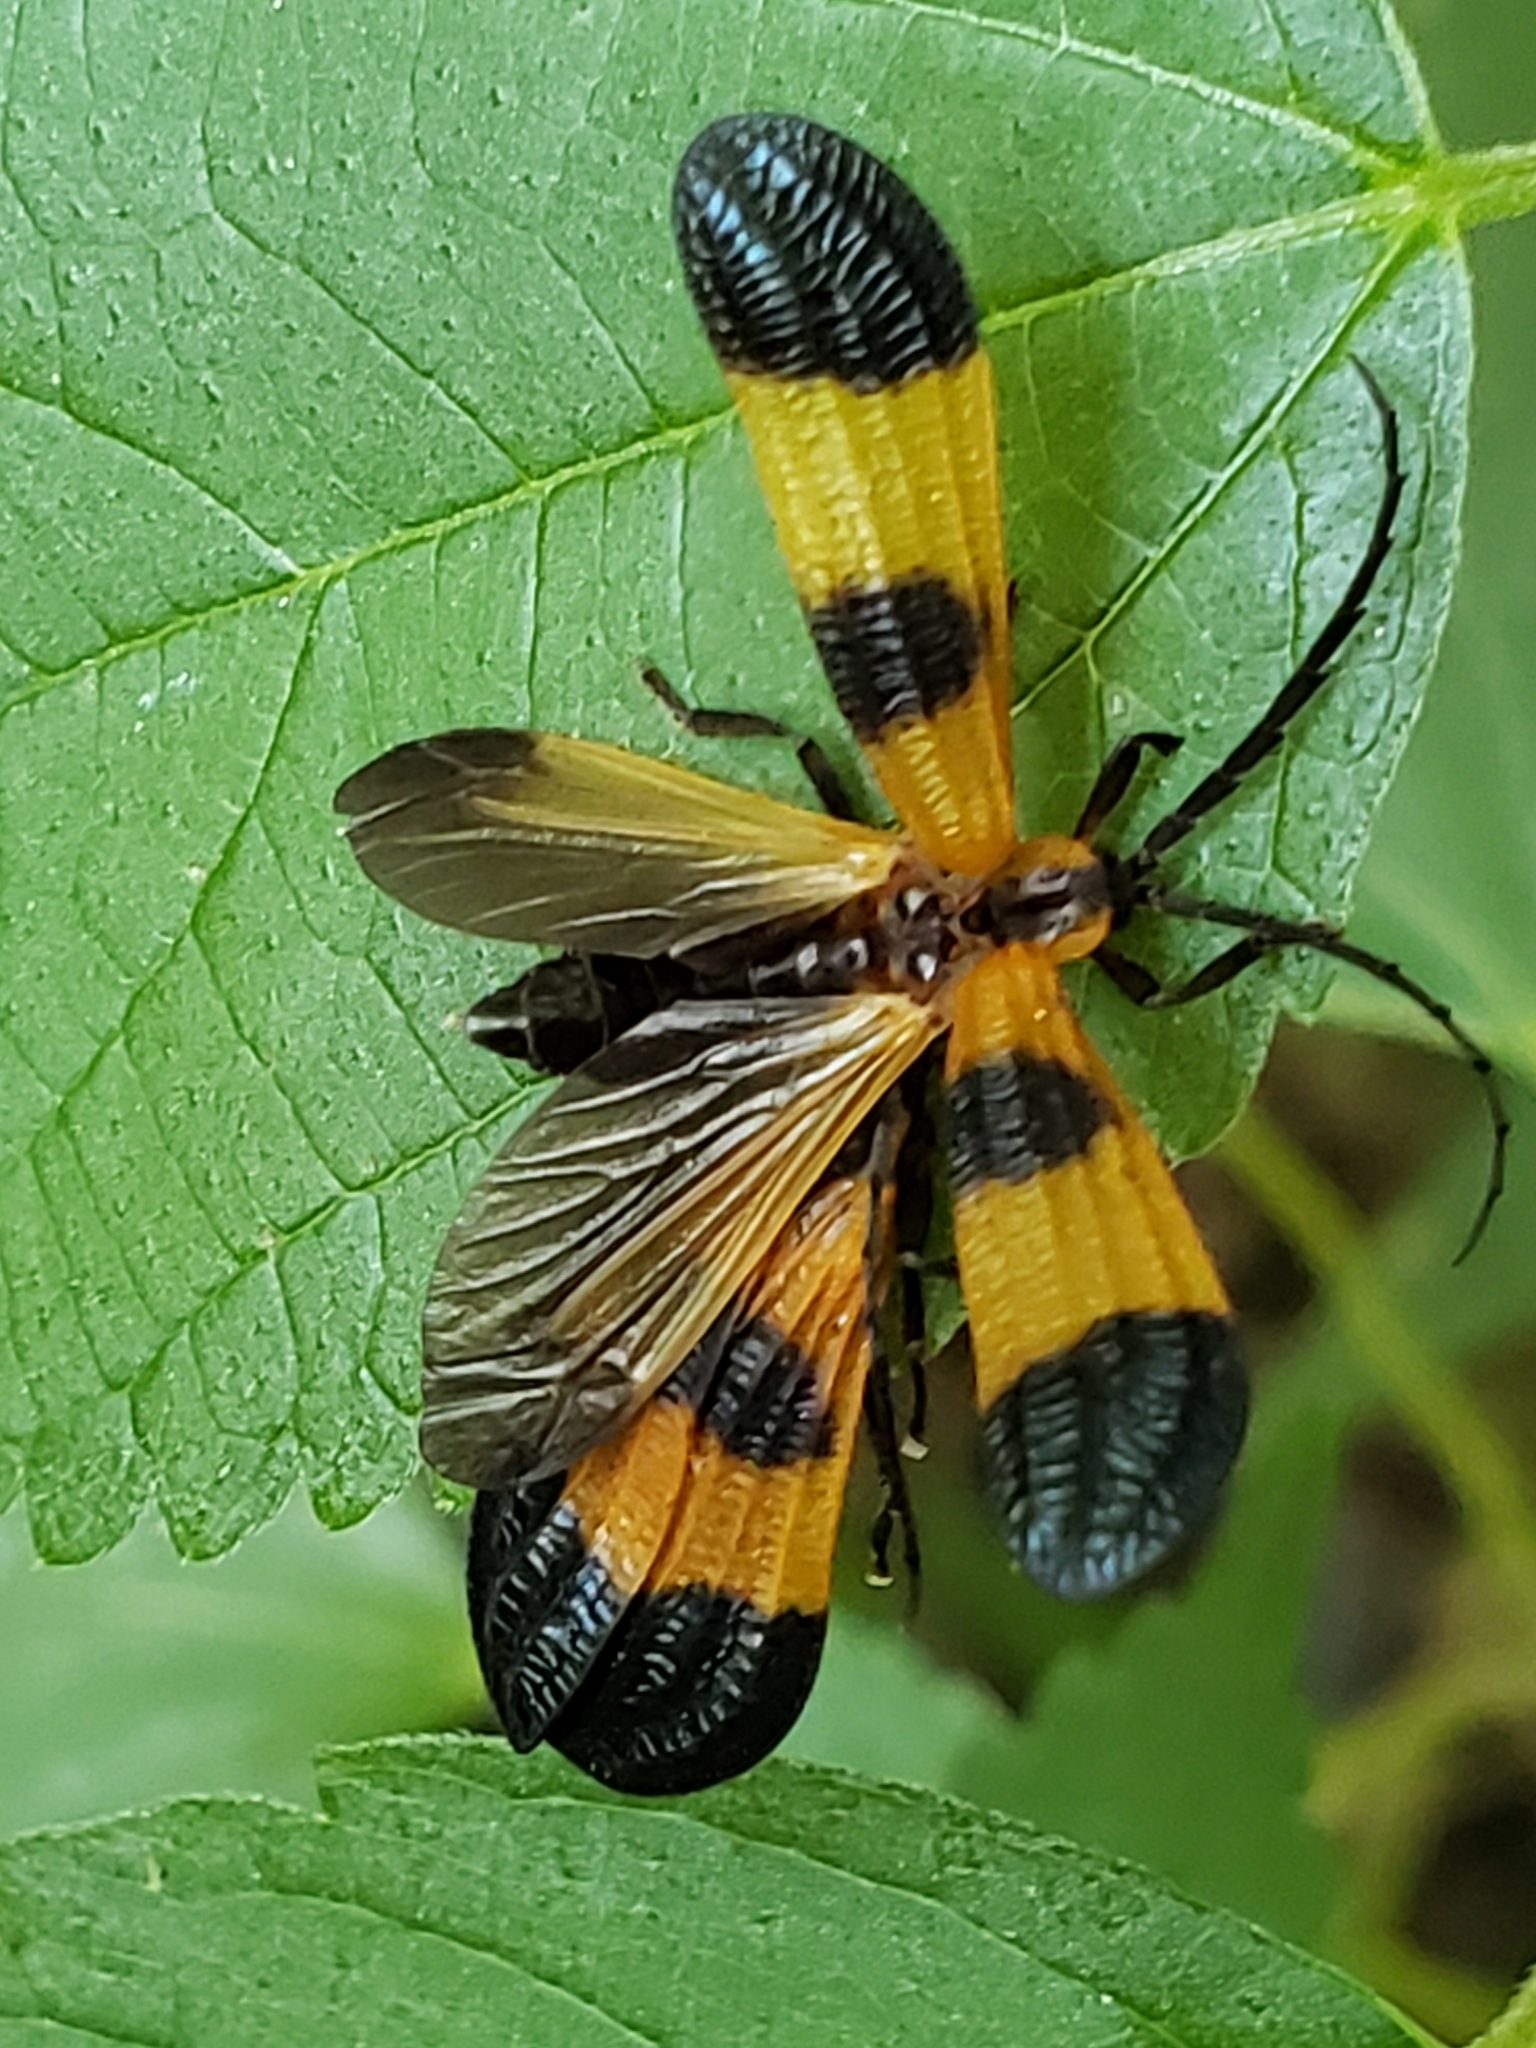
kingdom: Animalia
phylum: Arthropoda
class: Insecta
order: Coleoptera
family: Lycidae
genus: Calopteron
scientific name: Calopteron terminale
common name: End band net-winged beetle
